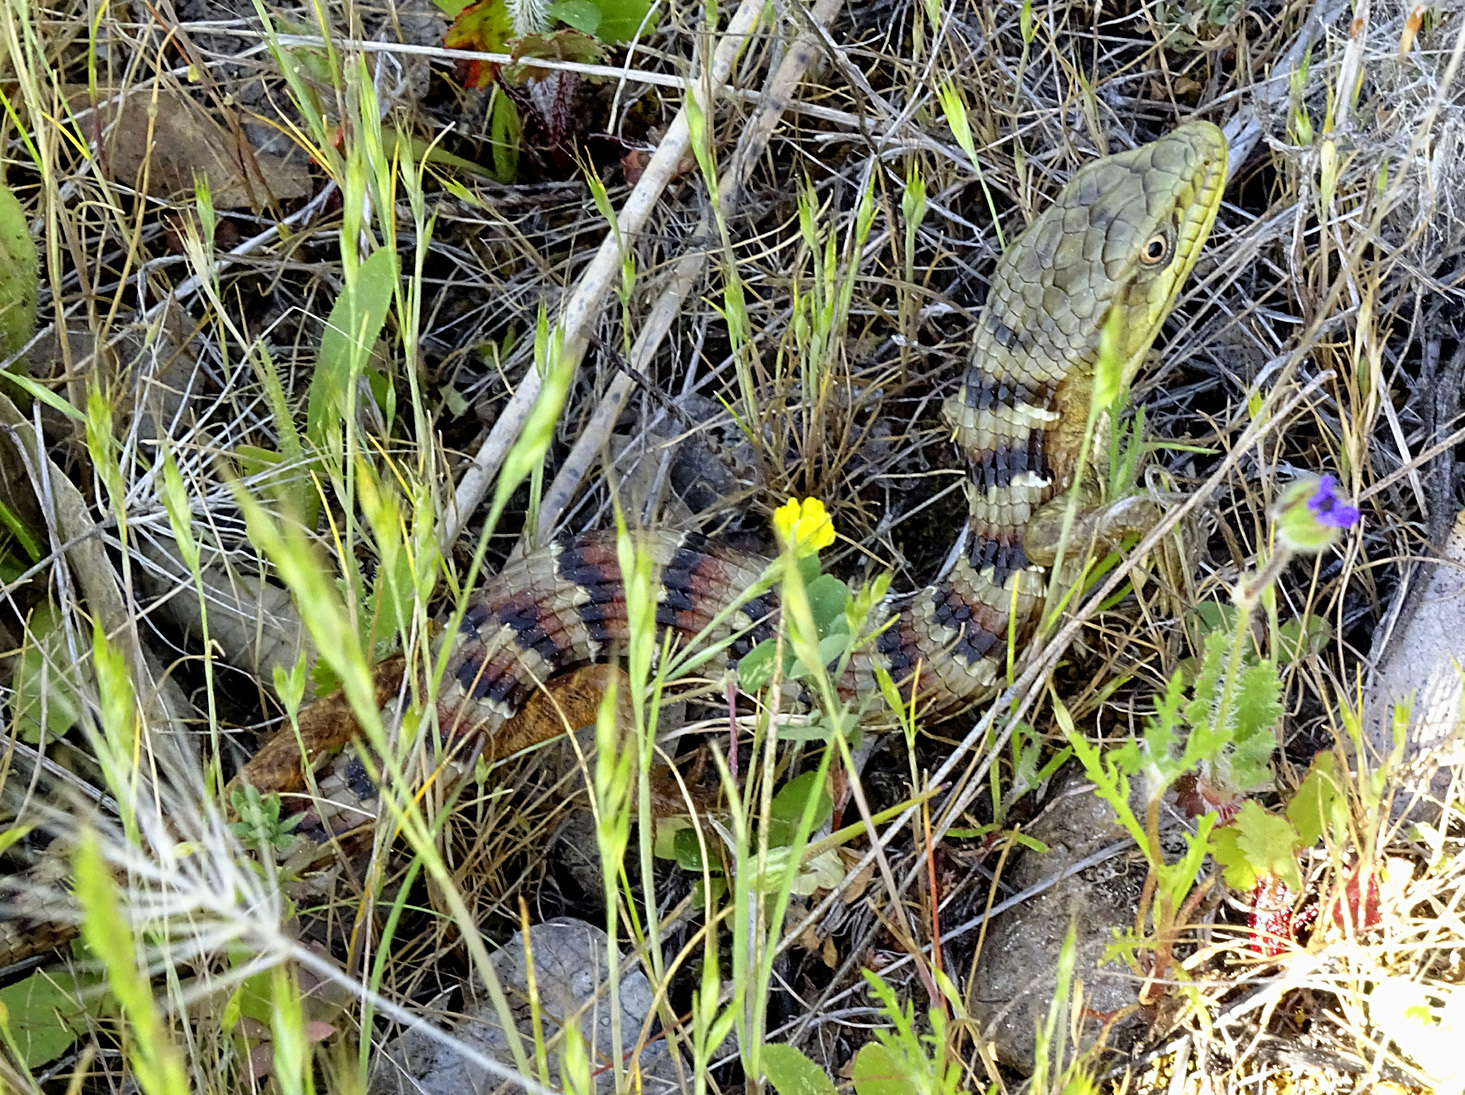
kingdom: Animalia
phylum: Chordata
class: Squamata
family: Anguidae
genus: Elgaria
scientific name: Elgaria multicarinata
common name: Southern alligator lizard
